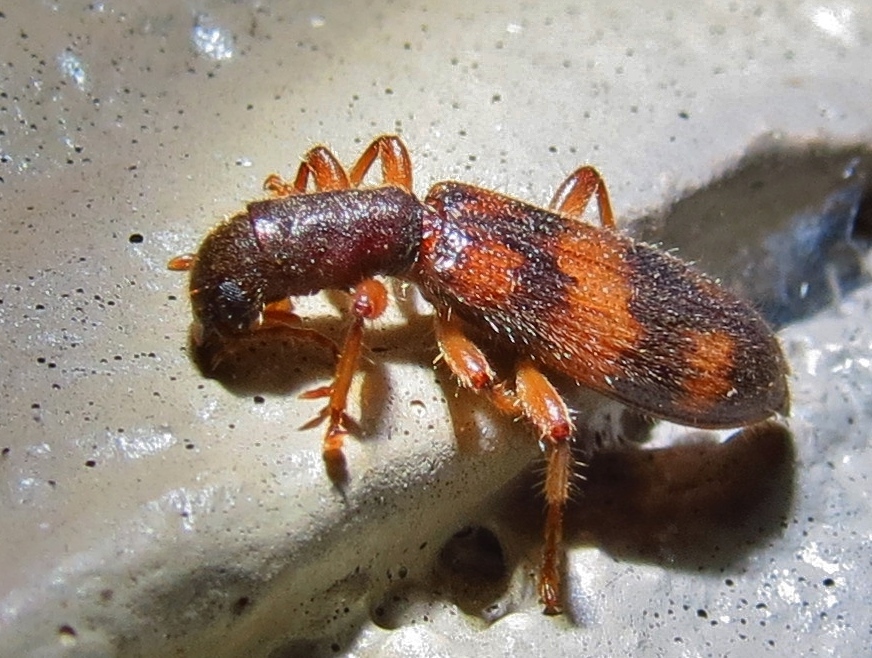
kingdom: Animalia
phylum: Arthropoda
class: Insecta
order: Coleoptera
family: Cleridae
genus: Cymatodera
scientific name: Cymatodera undulata
